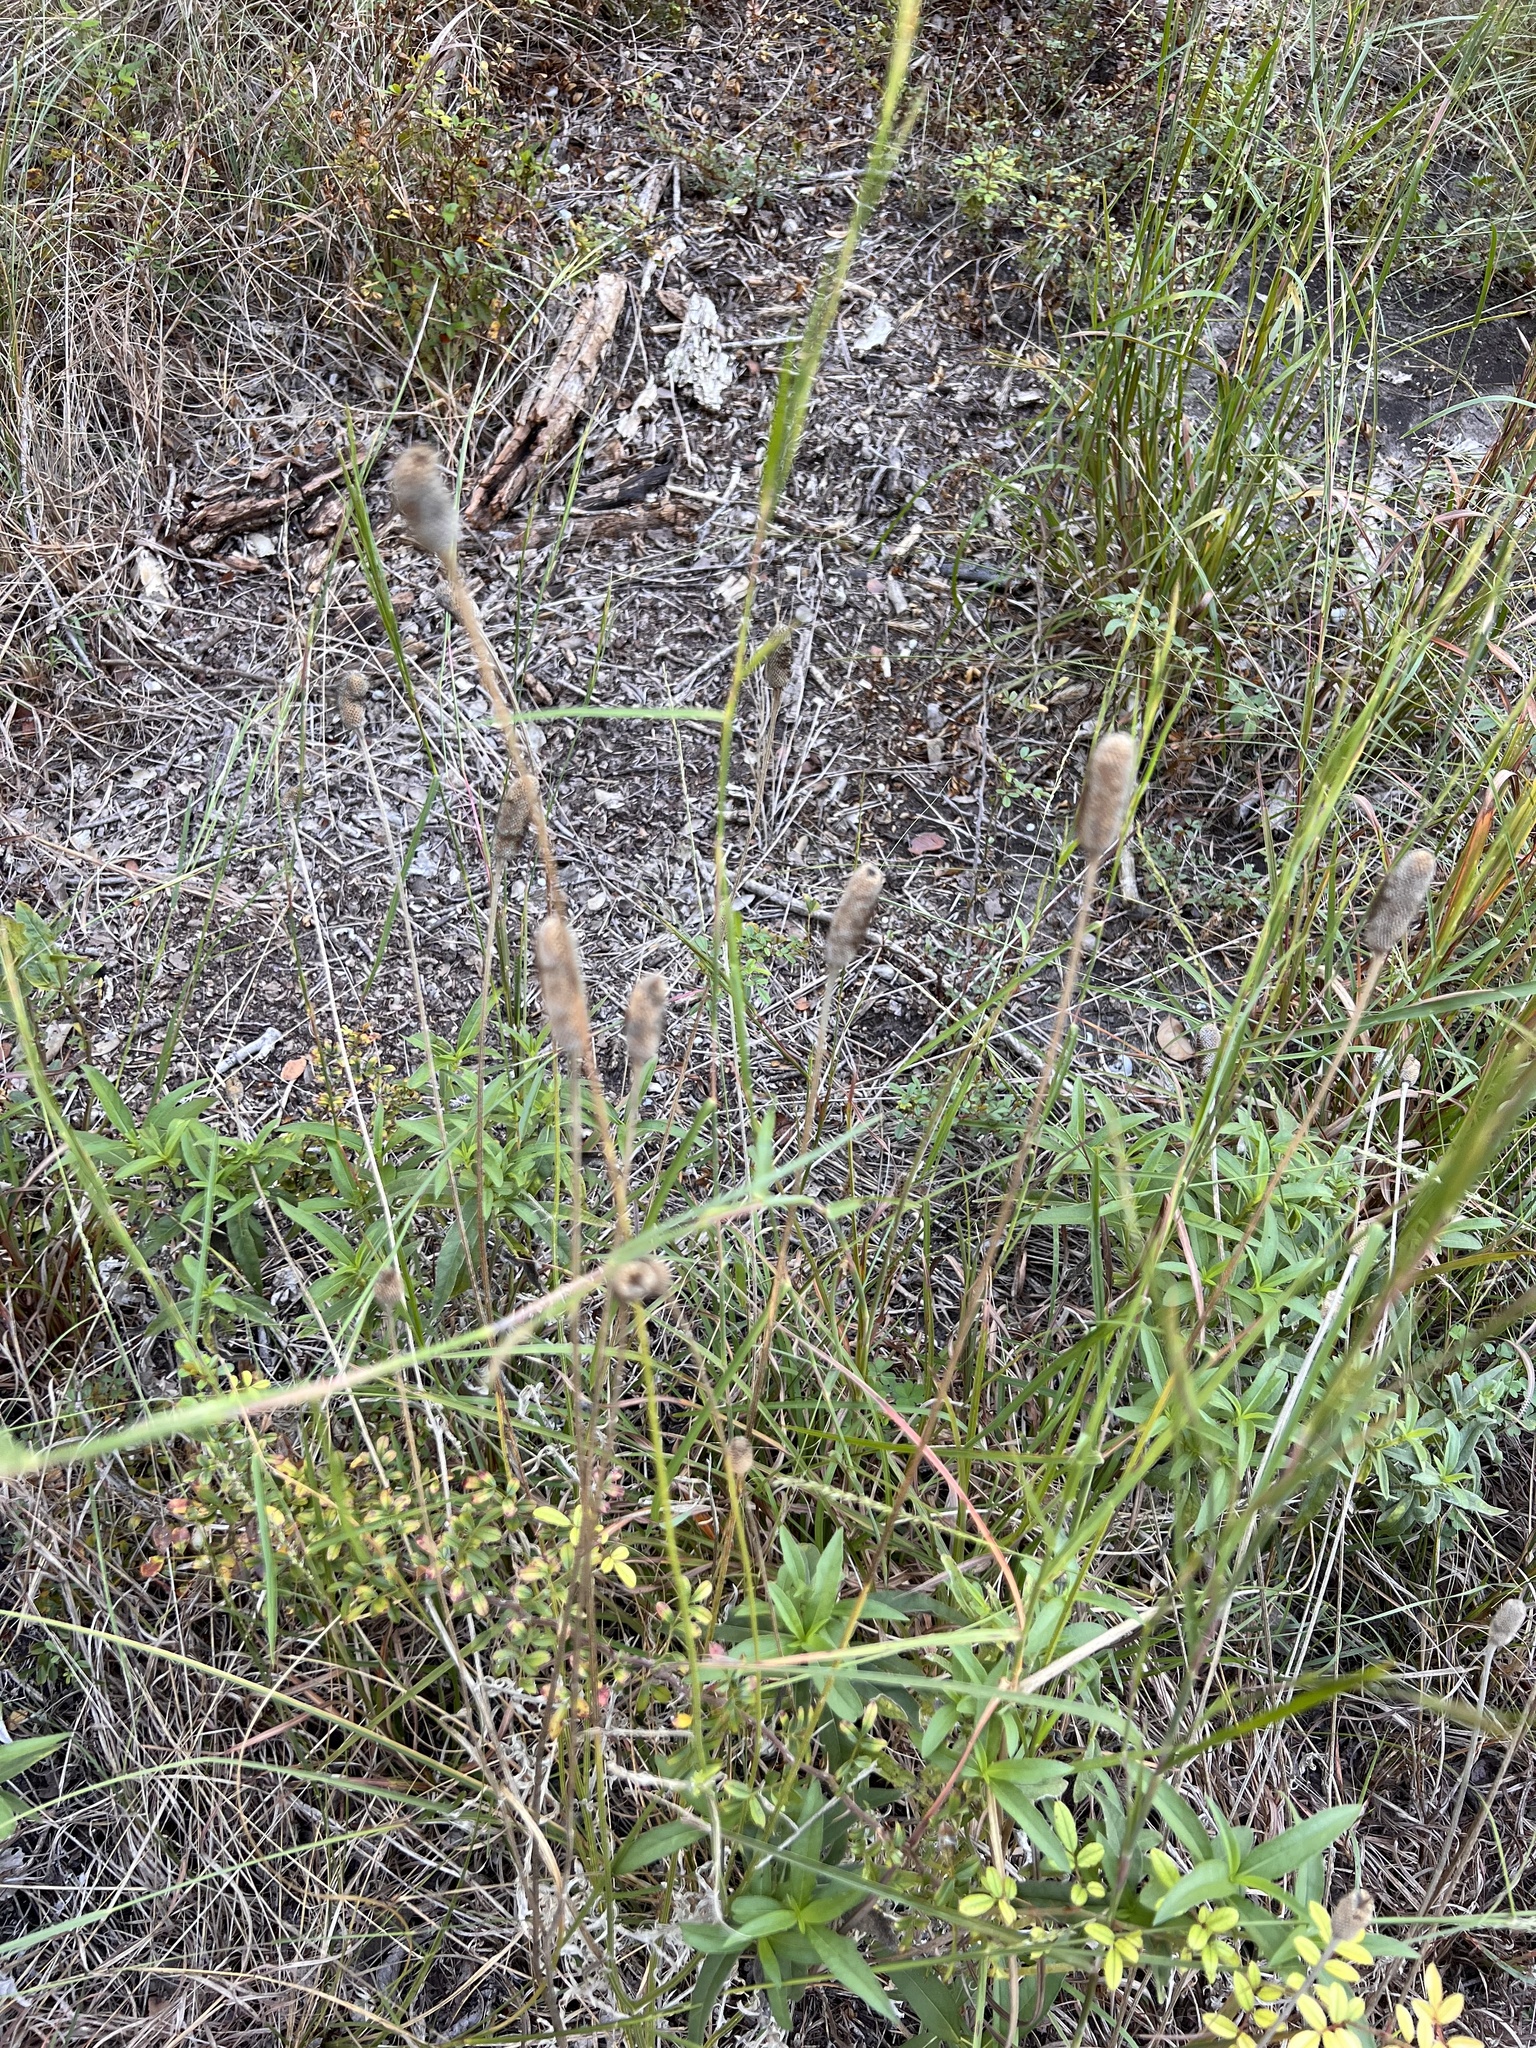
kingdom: Plantae
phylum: Tracheophyta
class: Magnoliopsida
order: Asterales
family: Asteraceae
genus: Ratibida
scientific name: Ratibida columnifera
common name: Prairie coneflower
